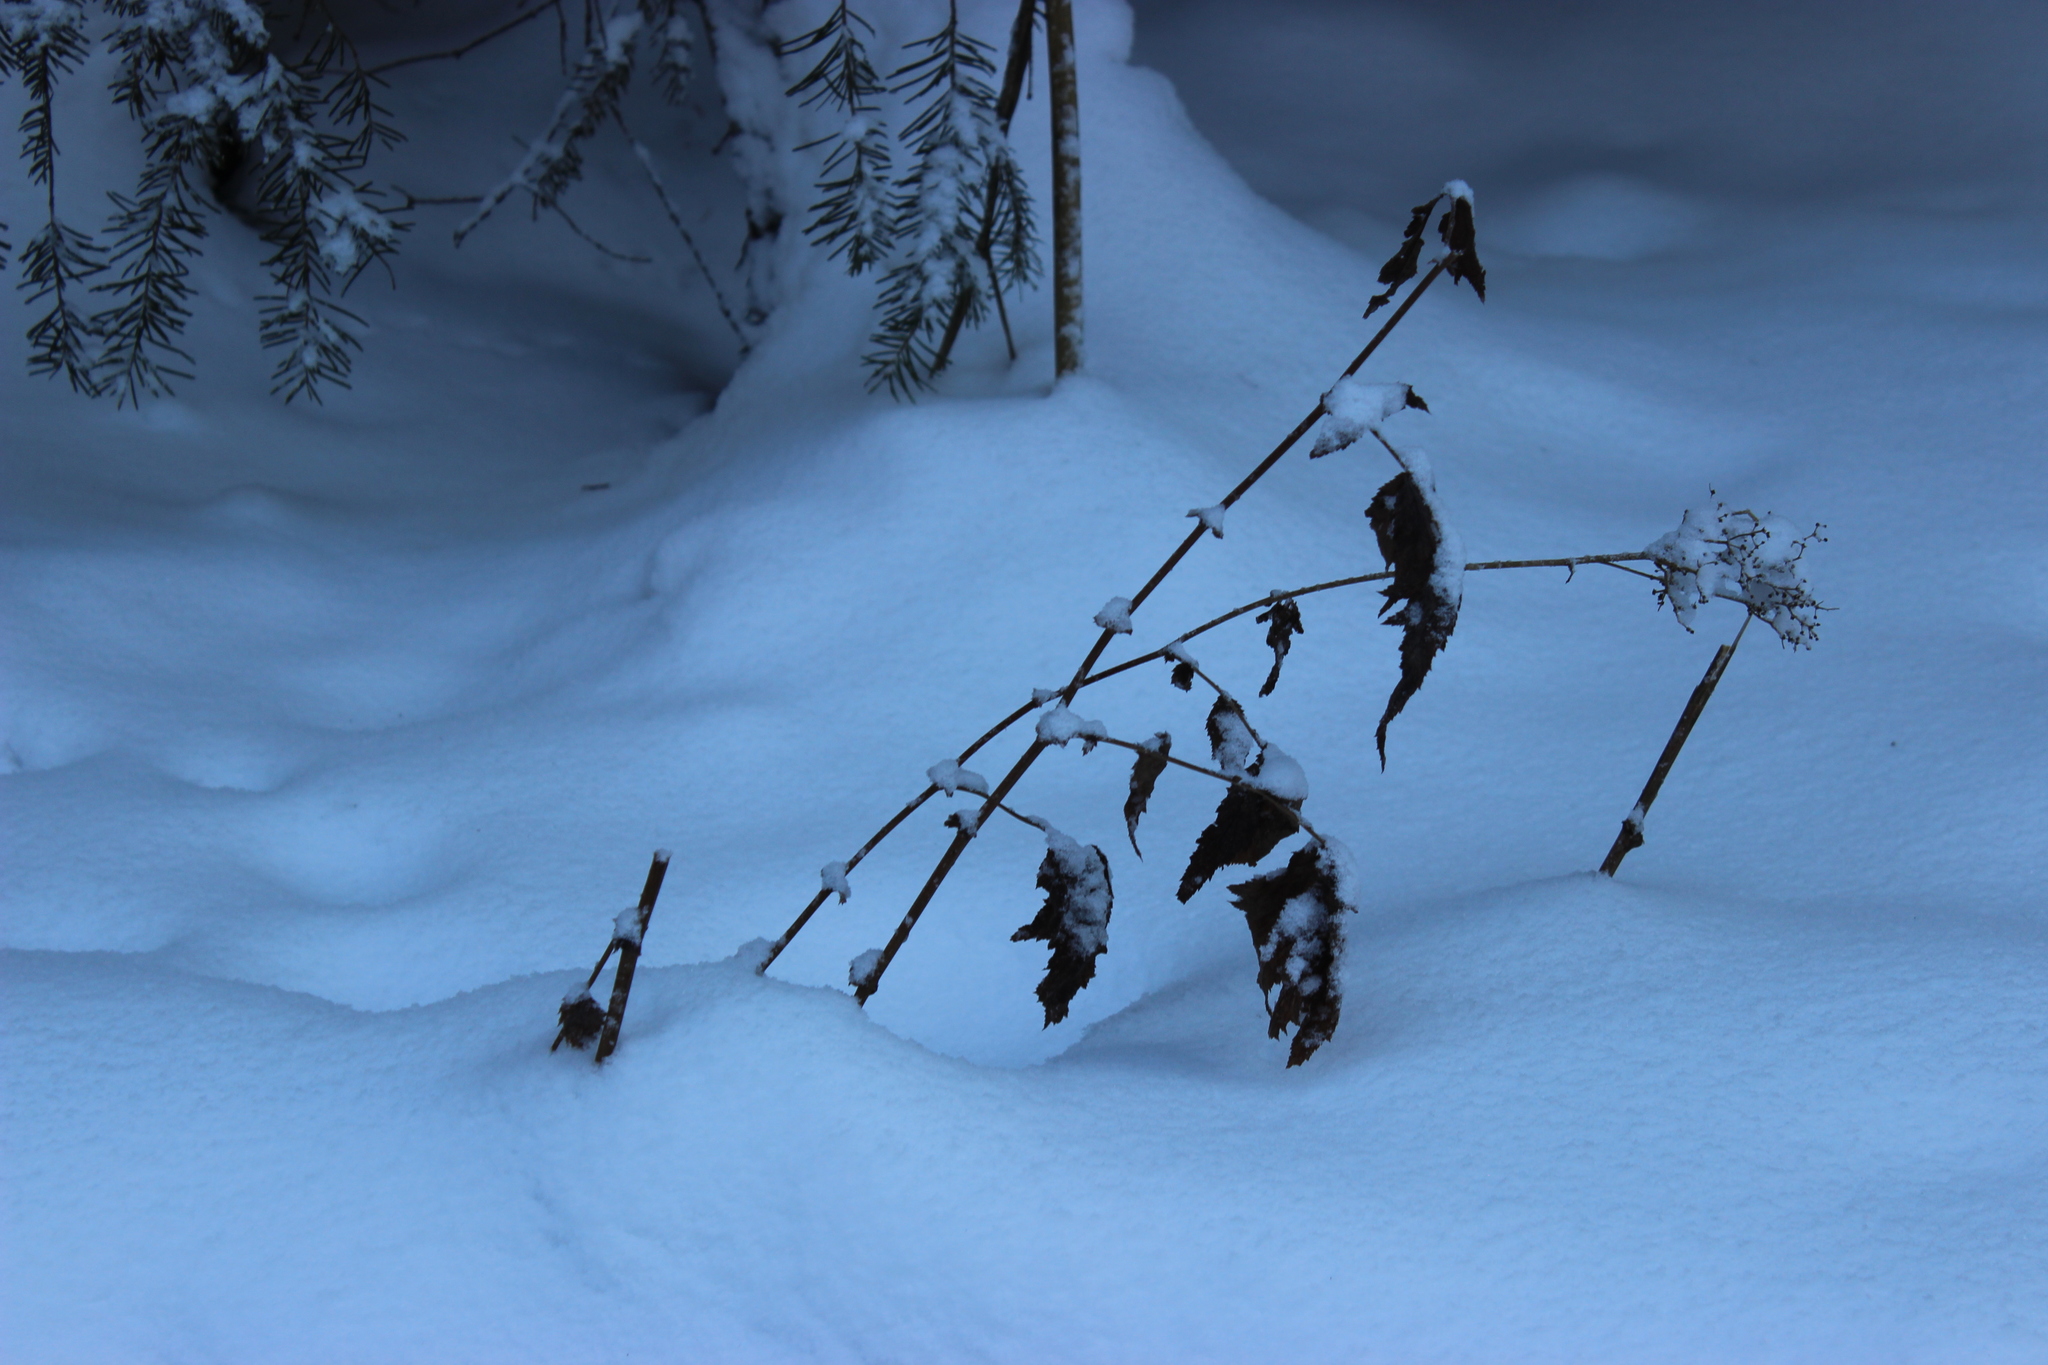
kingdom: Plantae
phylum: Tracheophyta
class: Magnoliopsida
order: Rosales
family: Rosaceae
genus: Filipendula
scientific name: Filipendula ulmaria
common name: Meadowsweet
